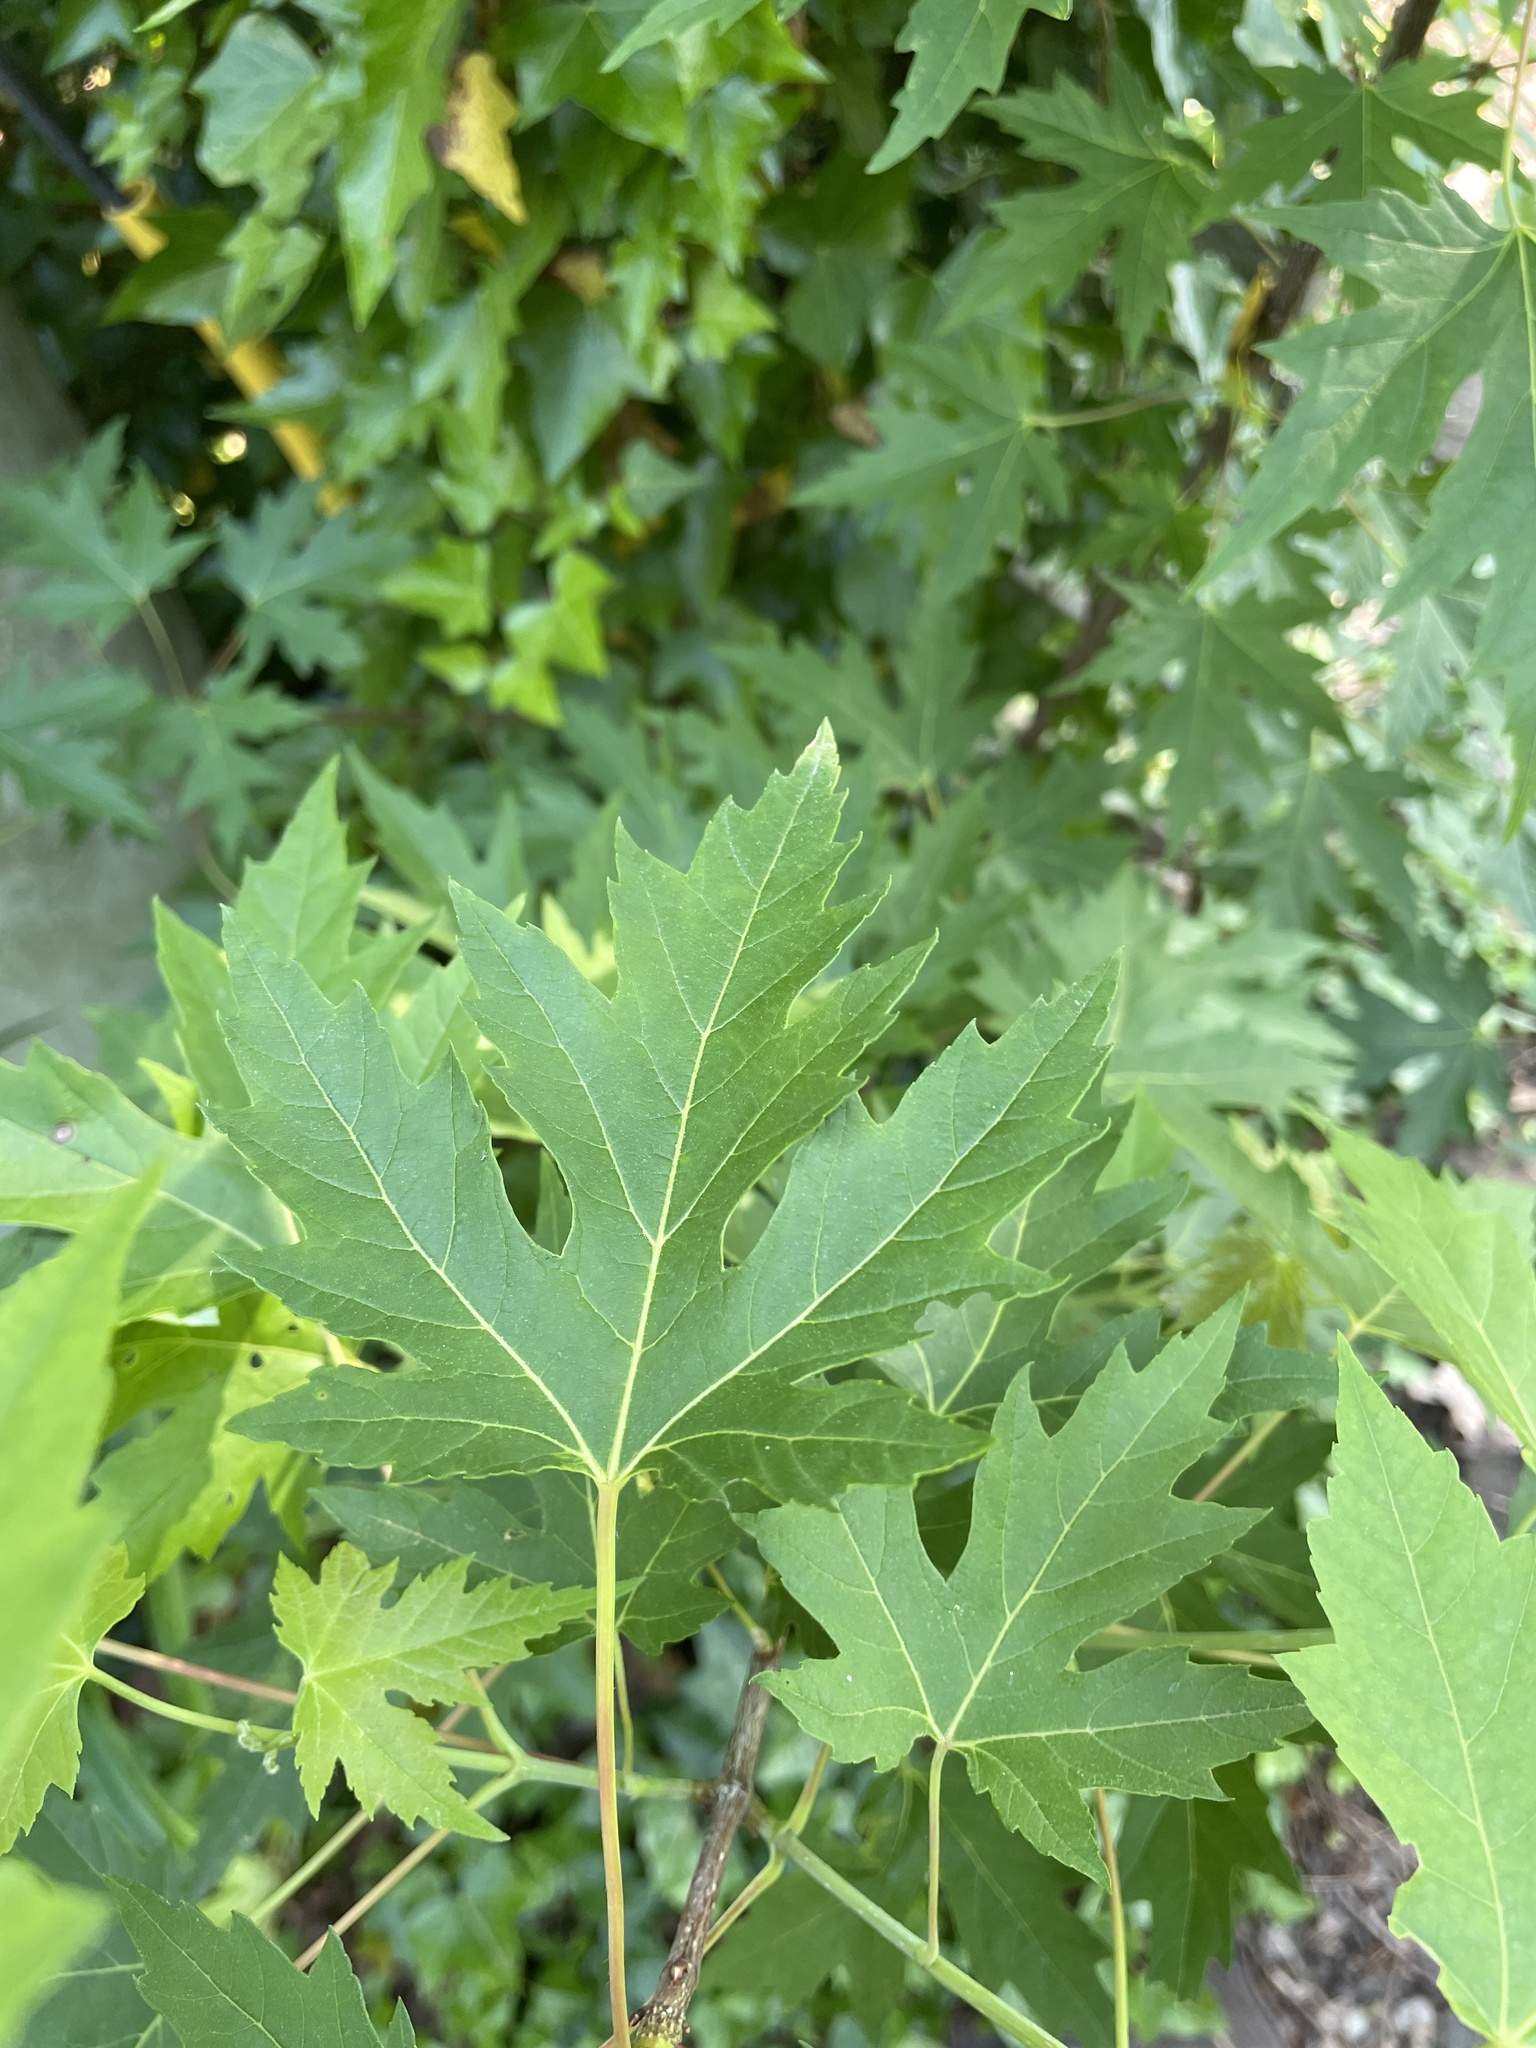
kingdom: Plantae
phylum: Tracheophyta
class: Magnoliopsida
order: Sapindales
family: Sapindaceae
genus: Acer
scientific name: Acer saccharinum
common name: Silver maple
